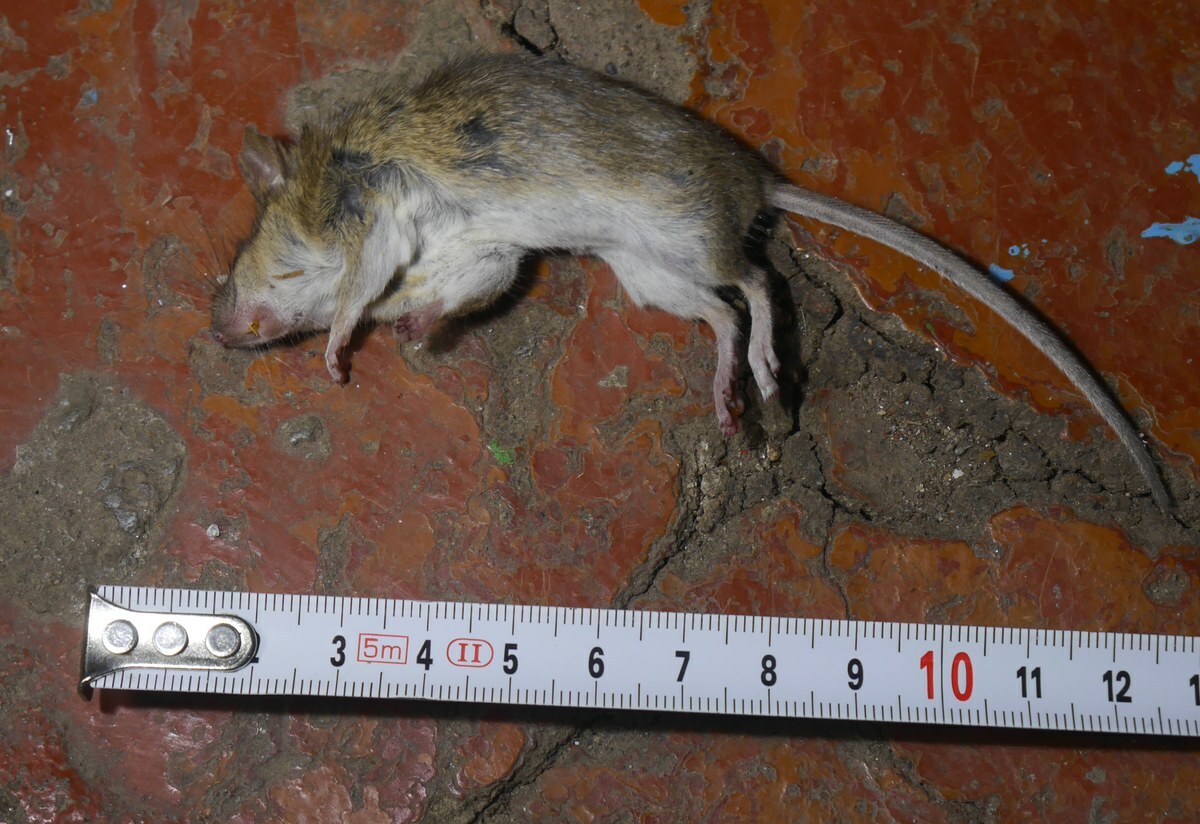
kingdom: Animalia
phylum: Chordata
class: Mammalia
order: Rodentia
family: Muridae
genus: Apodemus
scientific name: Apodemus sylvaticus
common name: Wood mouse
